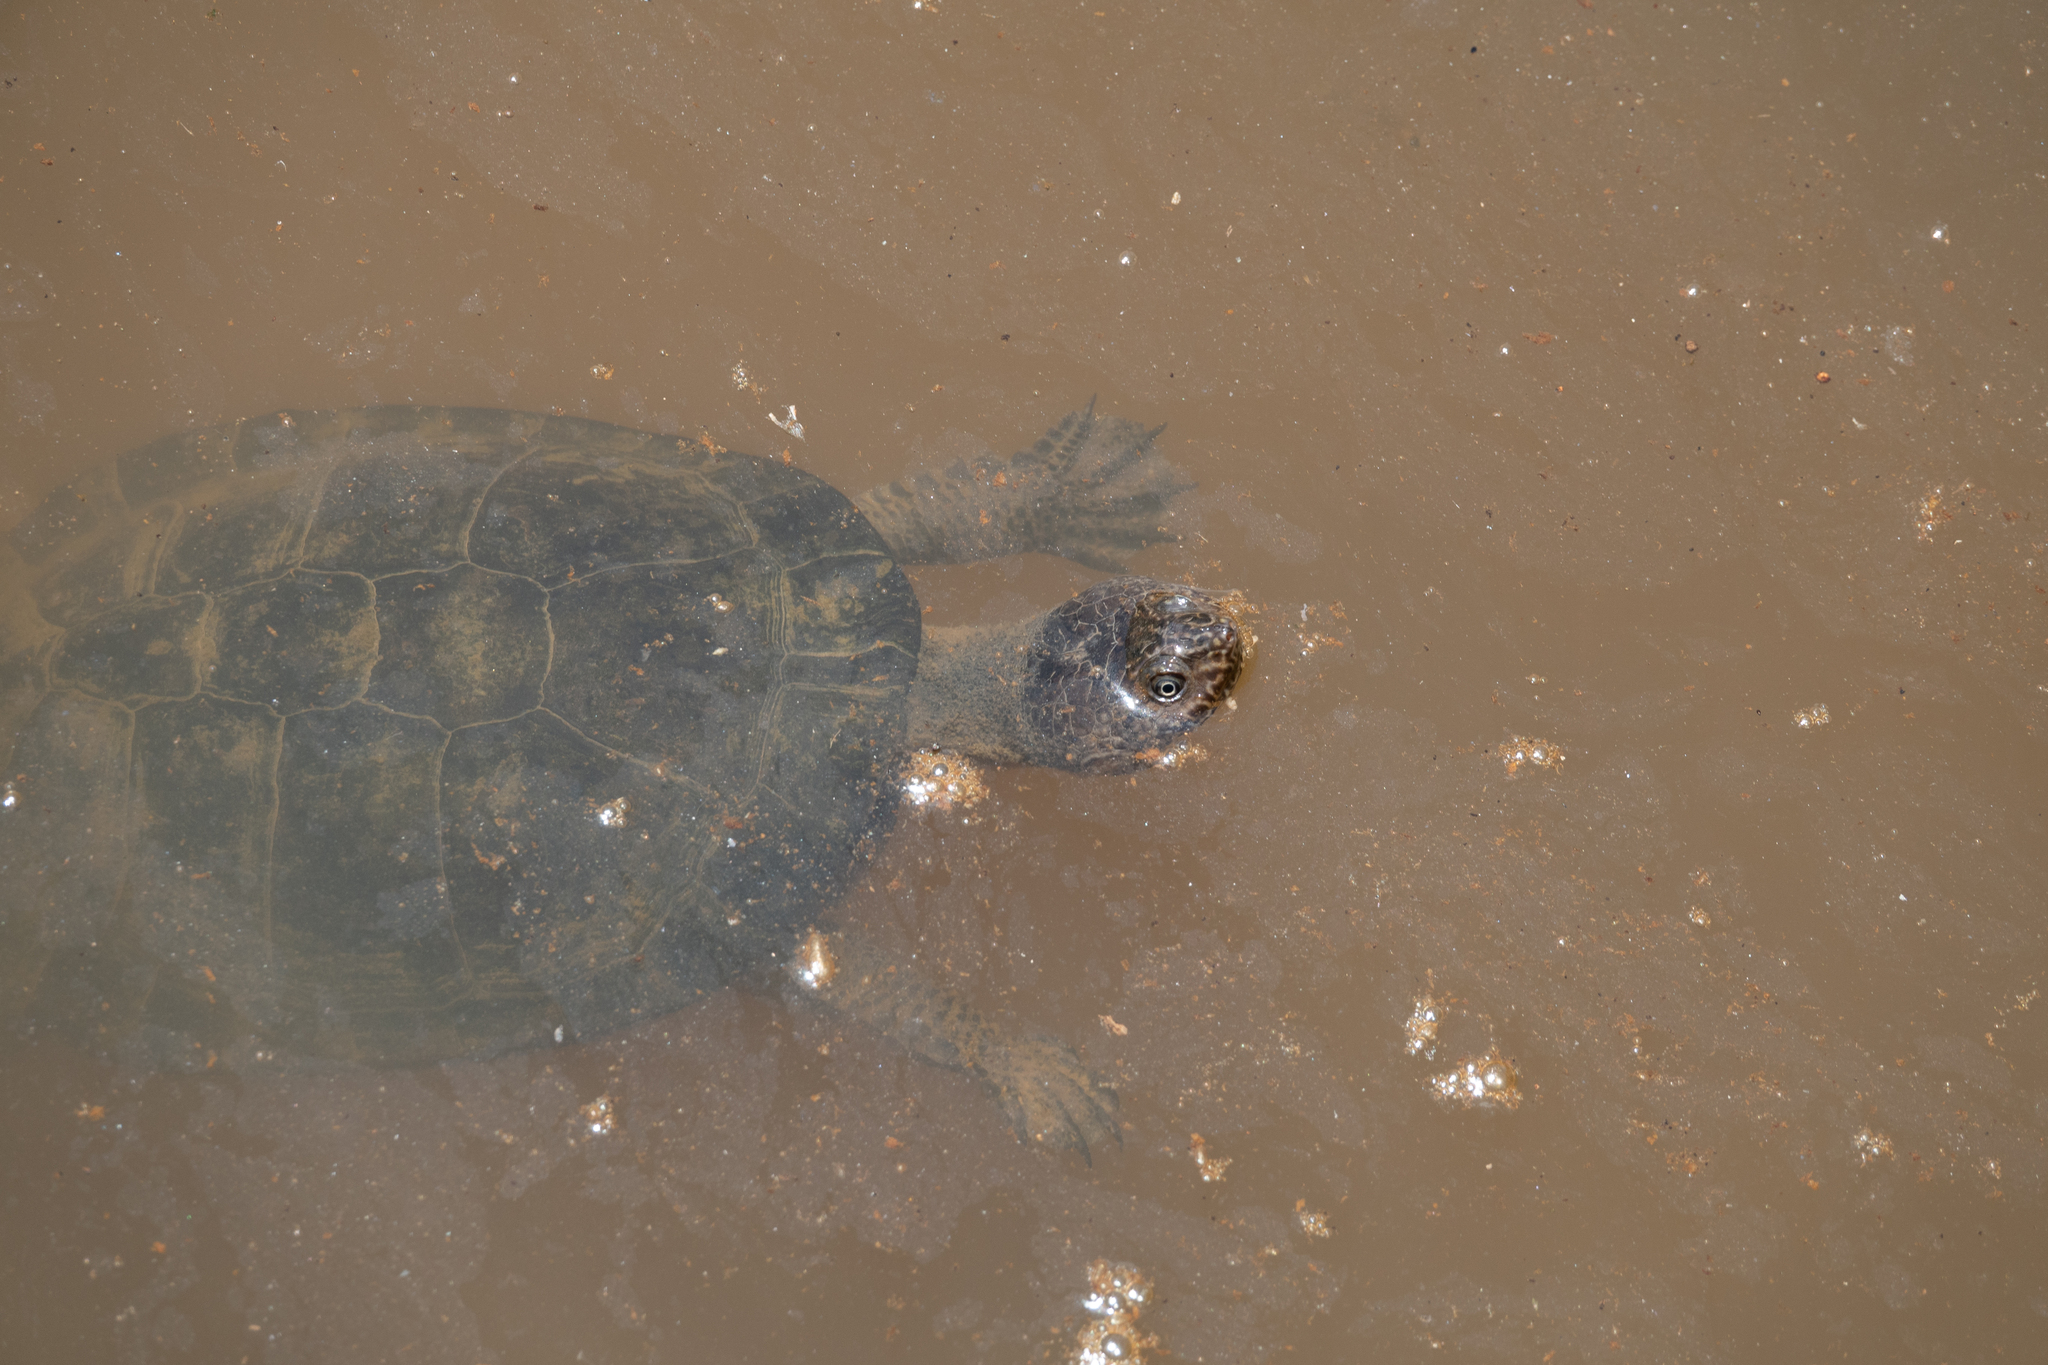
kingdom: Animalia
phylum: Chordata
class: Testudines
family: Chelidae
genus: Mesoclemmys
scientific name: Mesoclemmys gibba
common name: Gibba turtle
